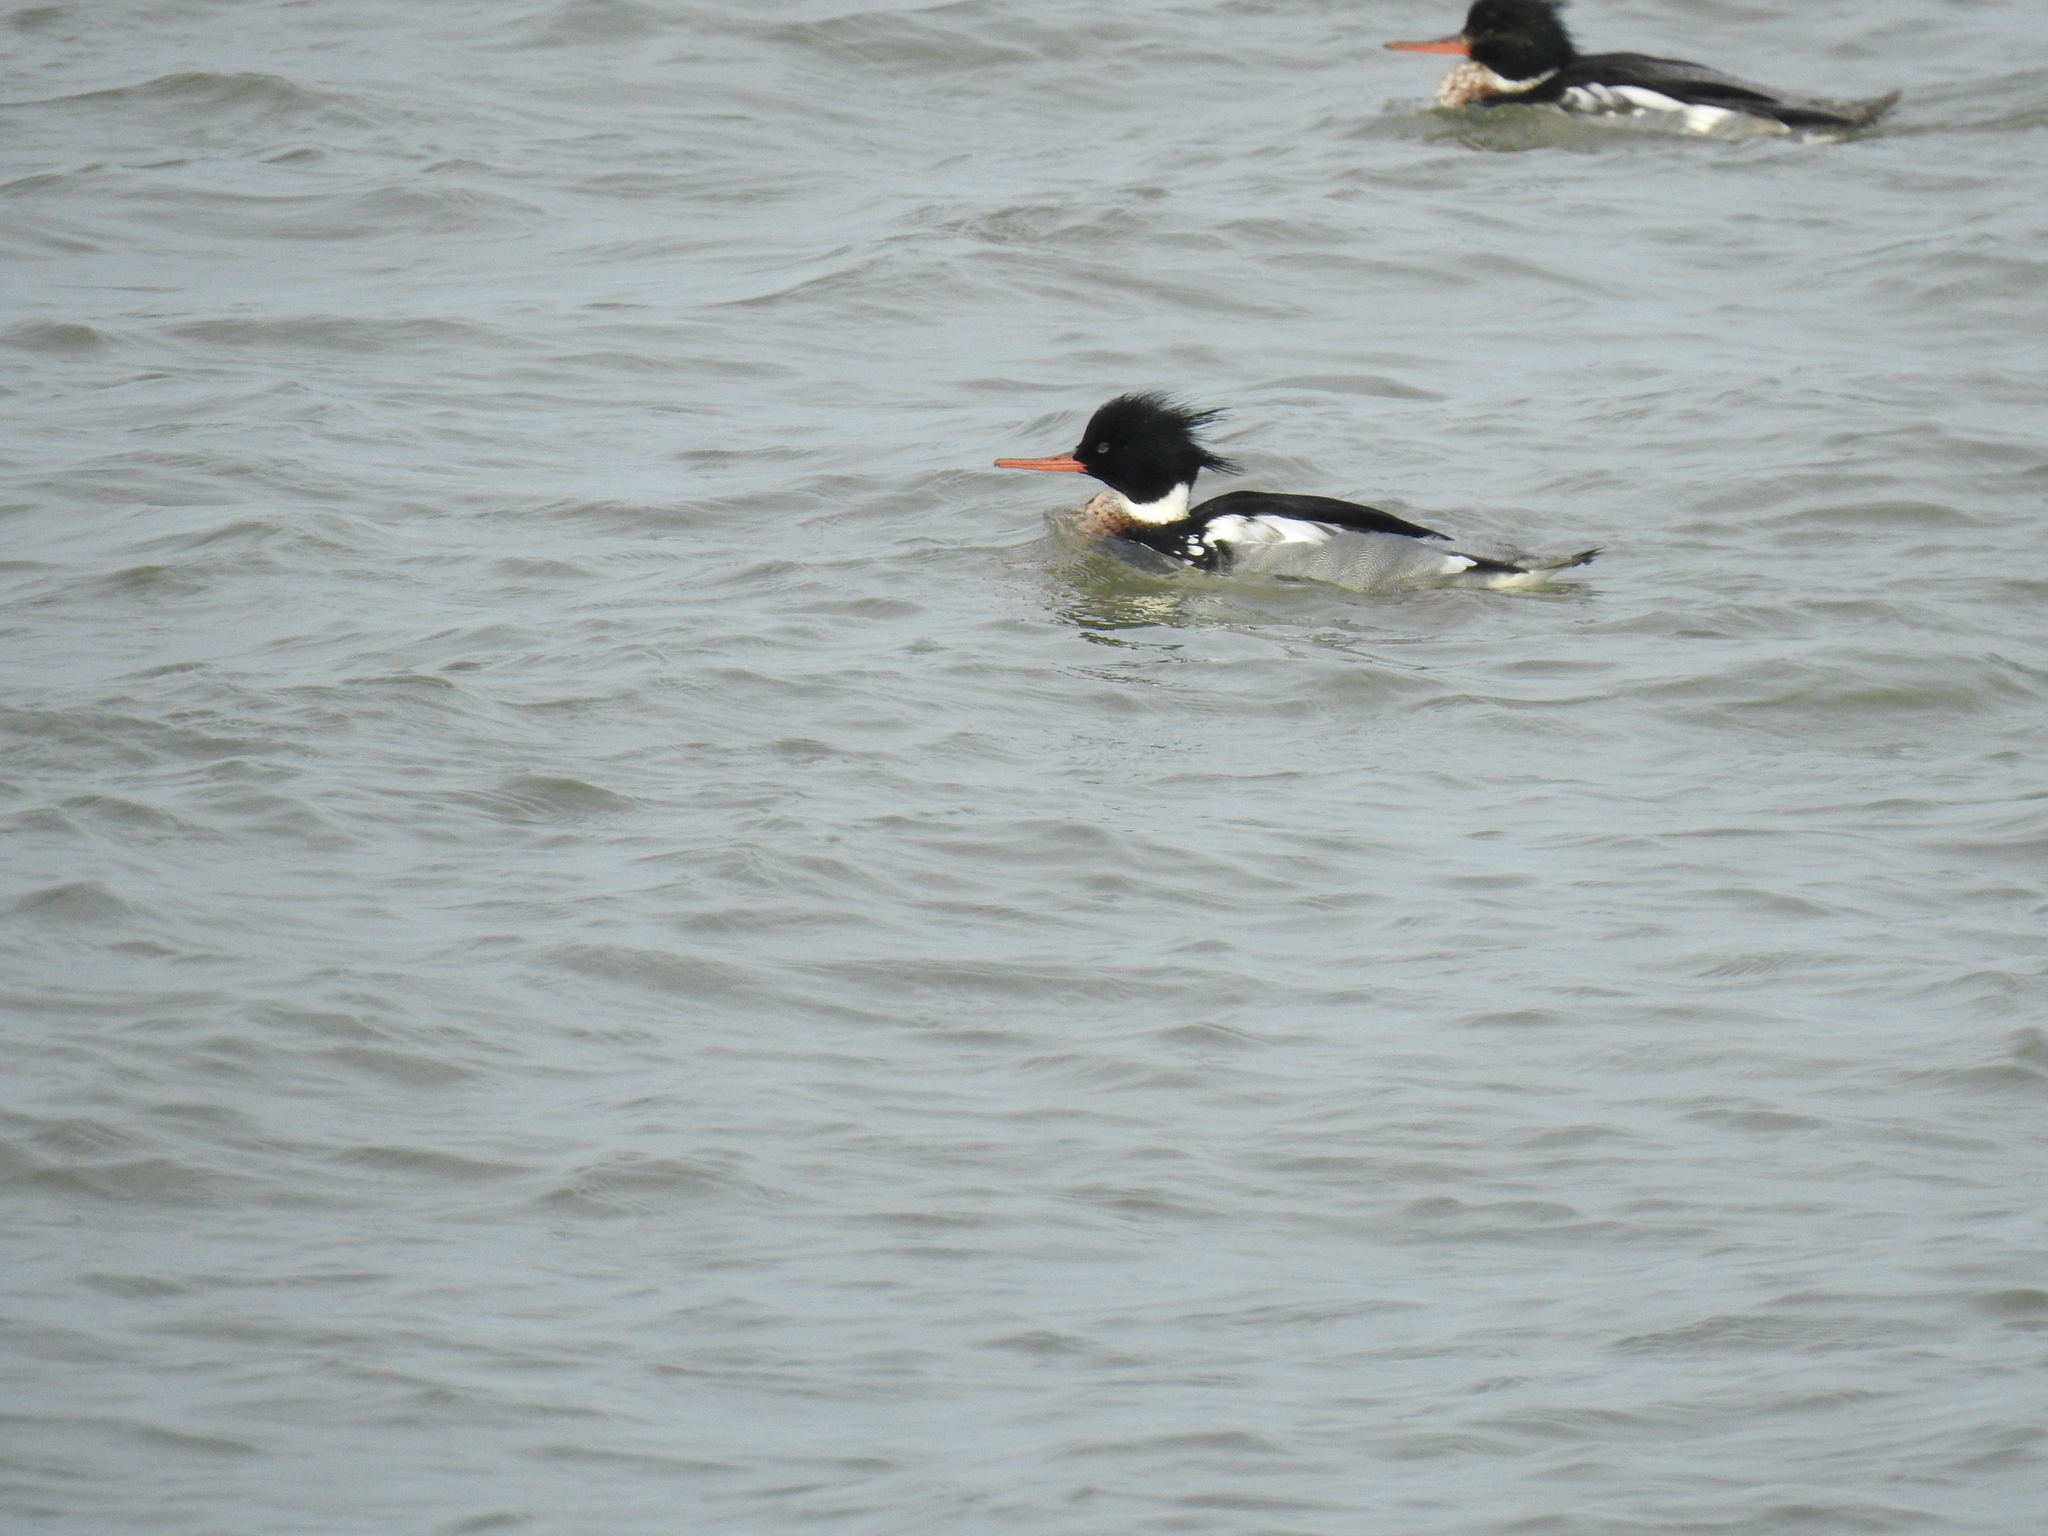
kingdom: Animalia
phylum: Chordata
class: Aves
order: Anseriformes
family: Anatidae
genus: Mergus
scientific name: Mergus serrator
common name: Red-breasted merganser
